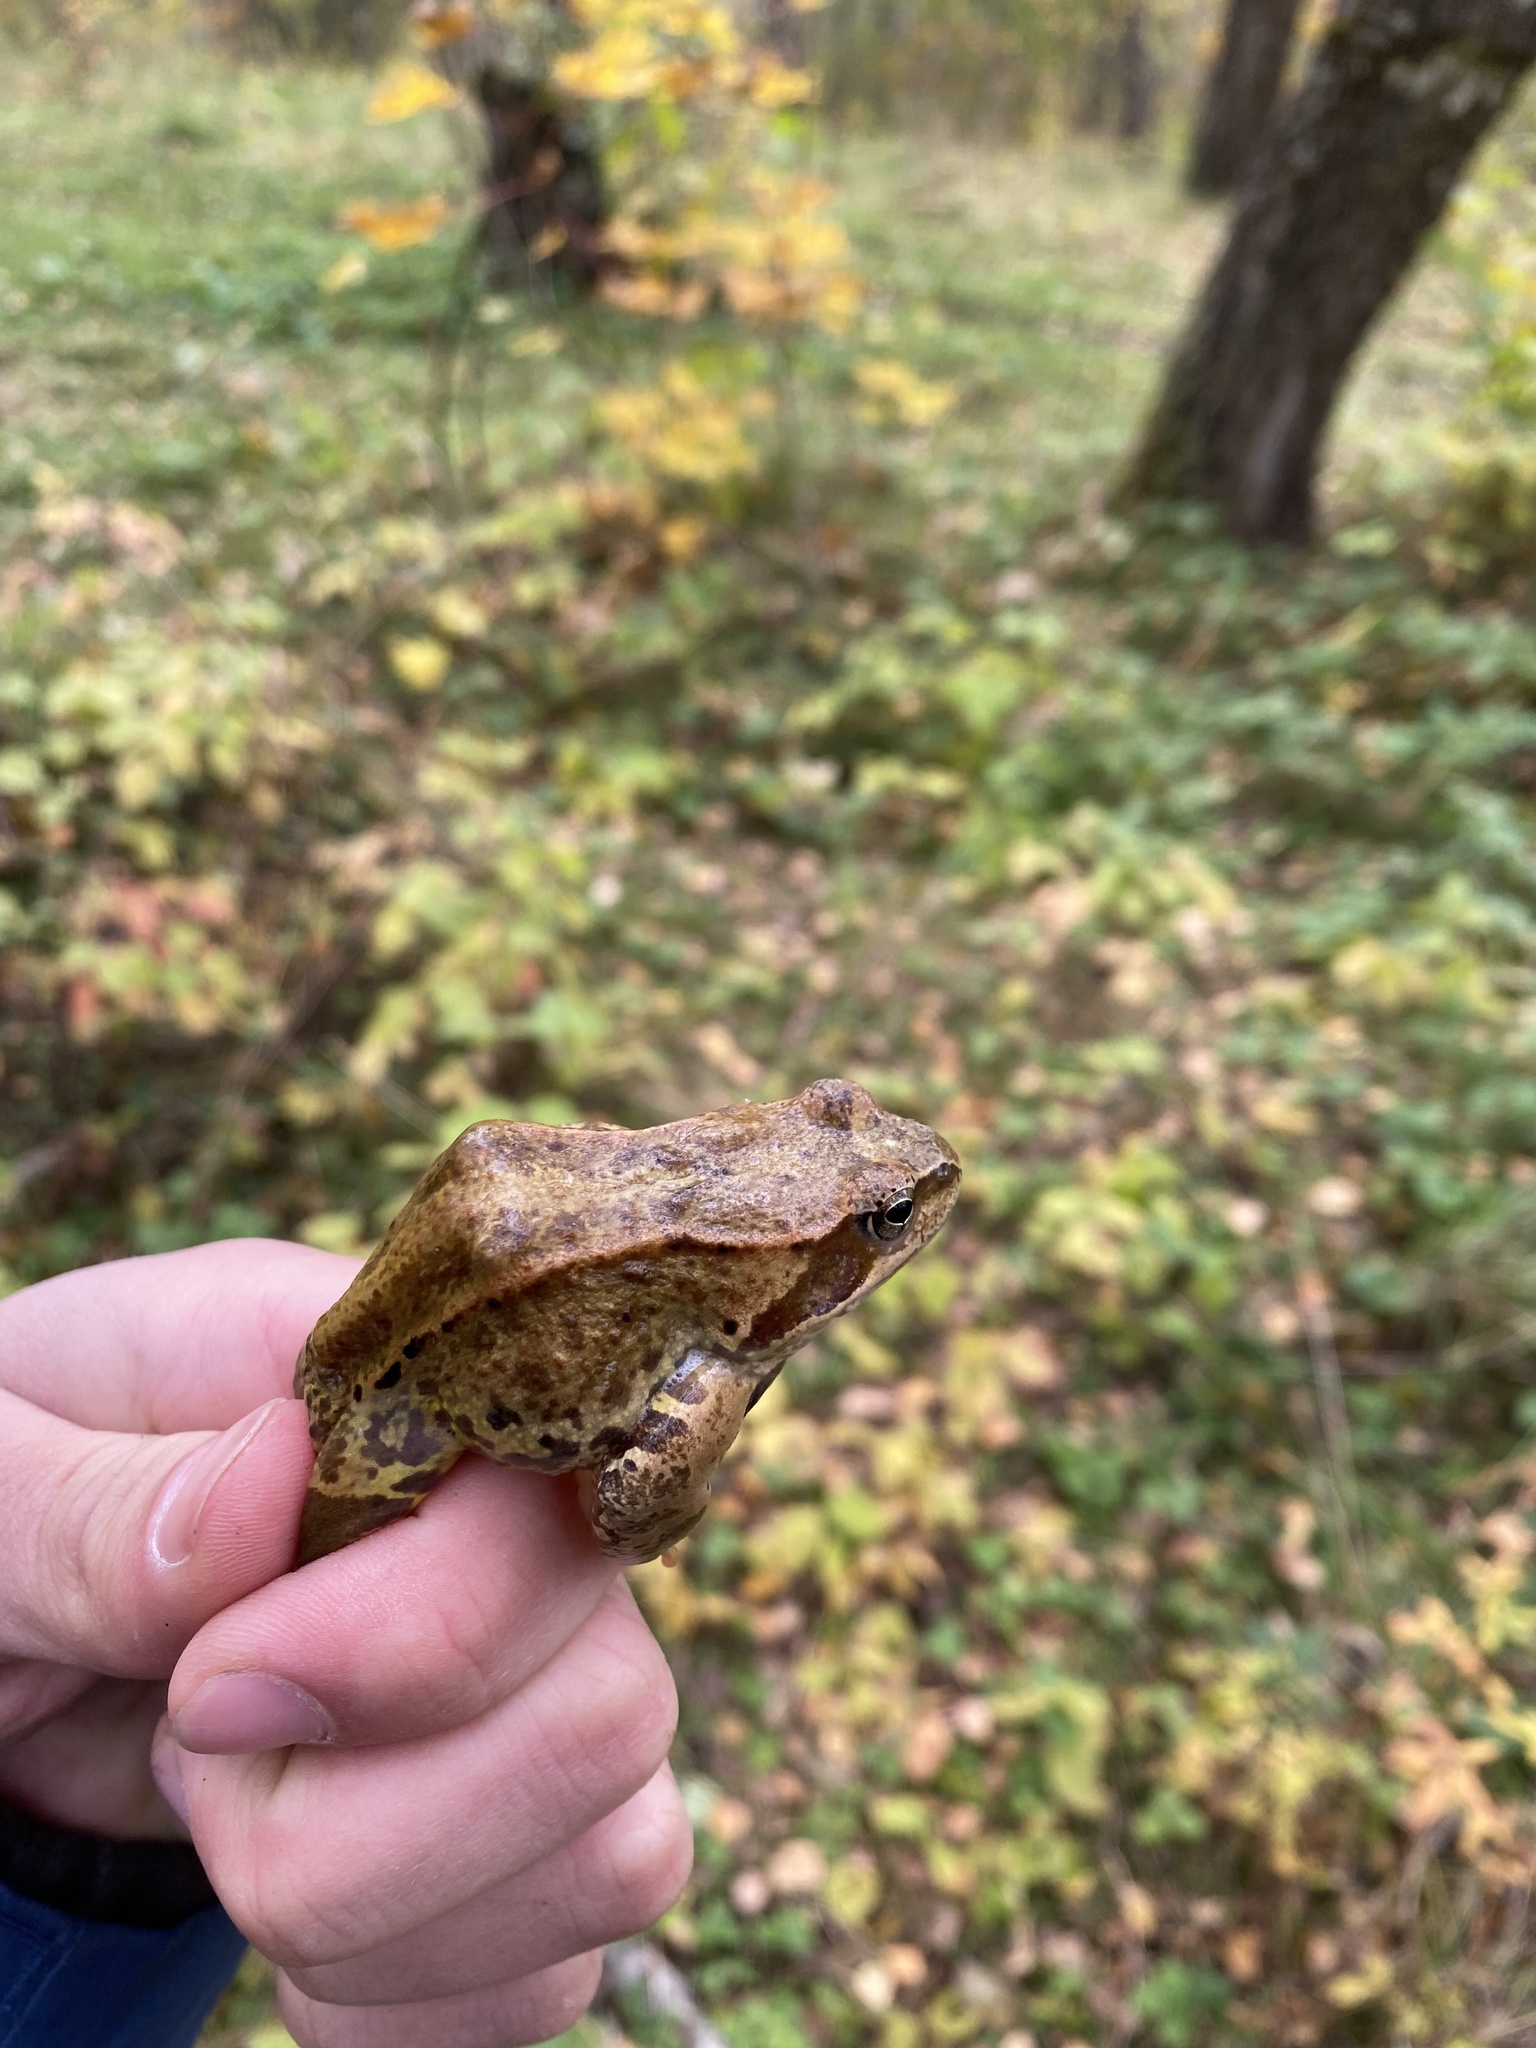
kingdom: Animalia
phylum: Chordata
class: Amphibia
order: Anura
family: Ranidae
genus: Rana
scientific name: Rana temporaria
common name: Common frog
